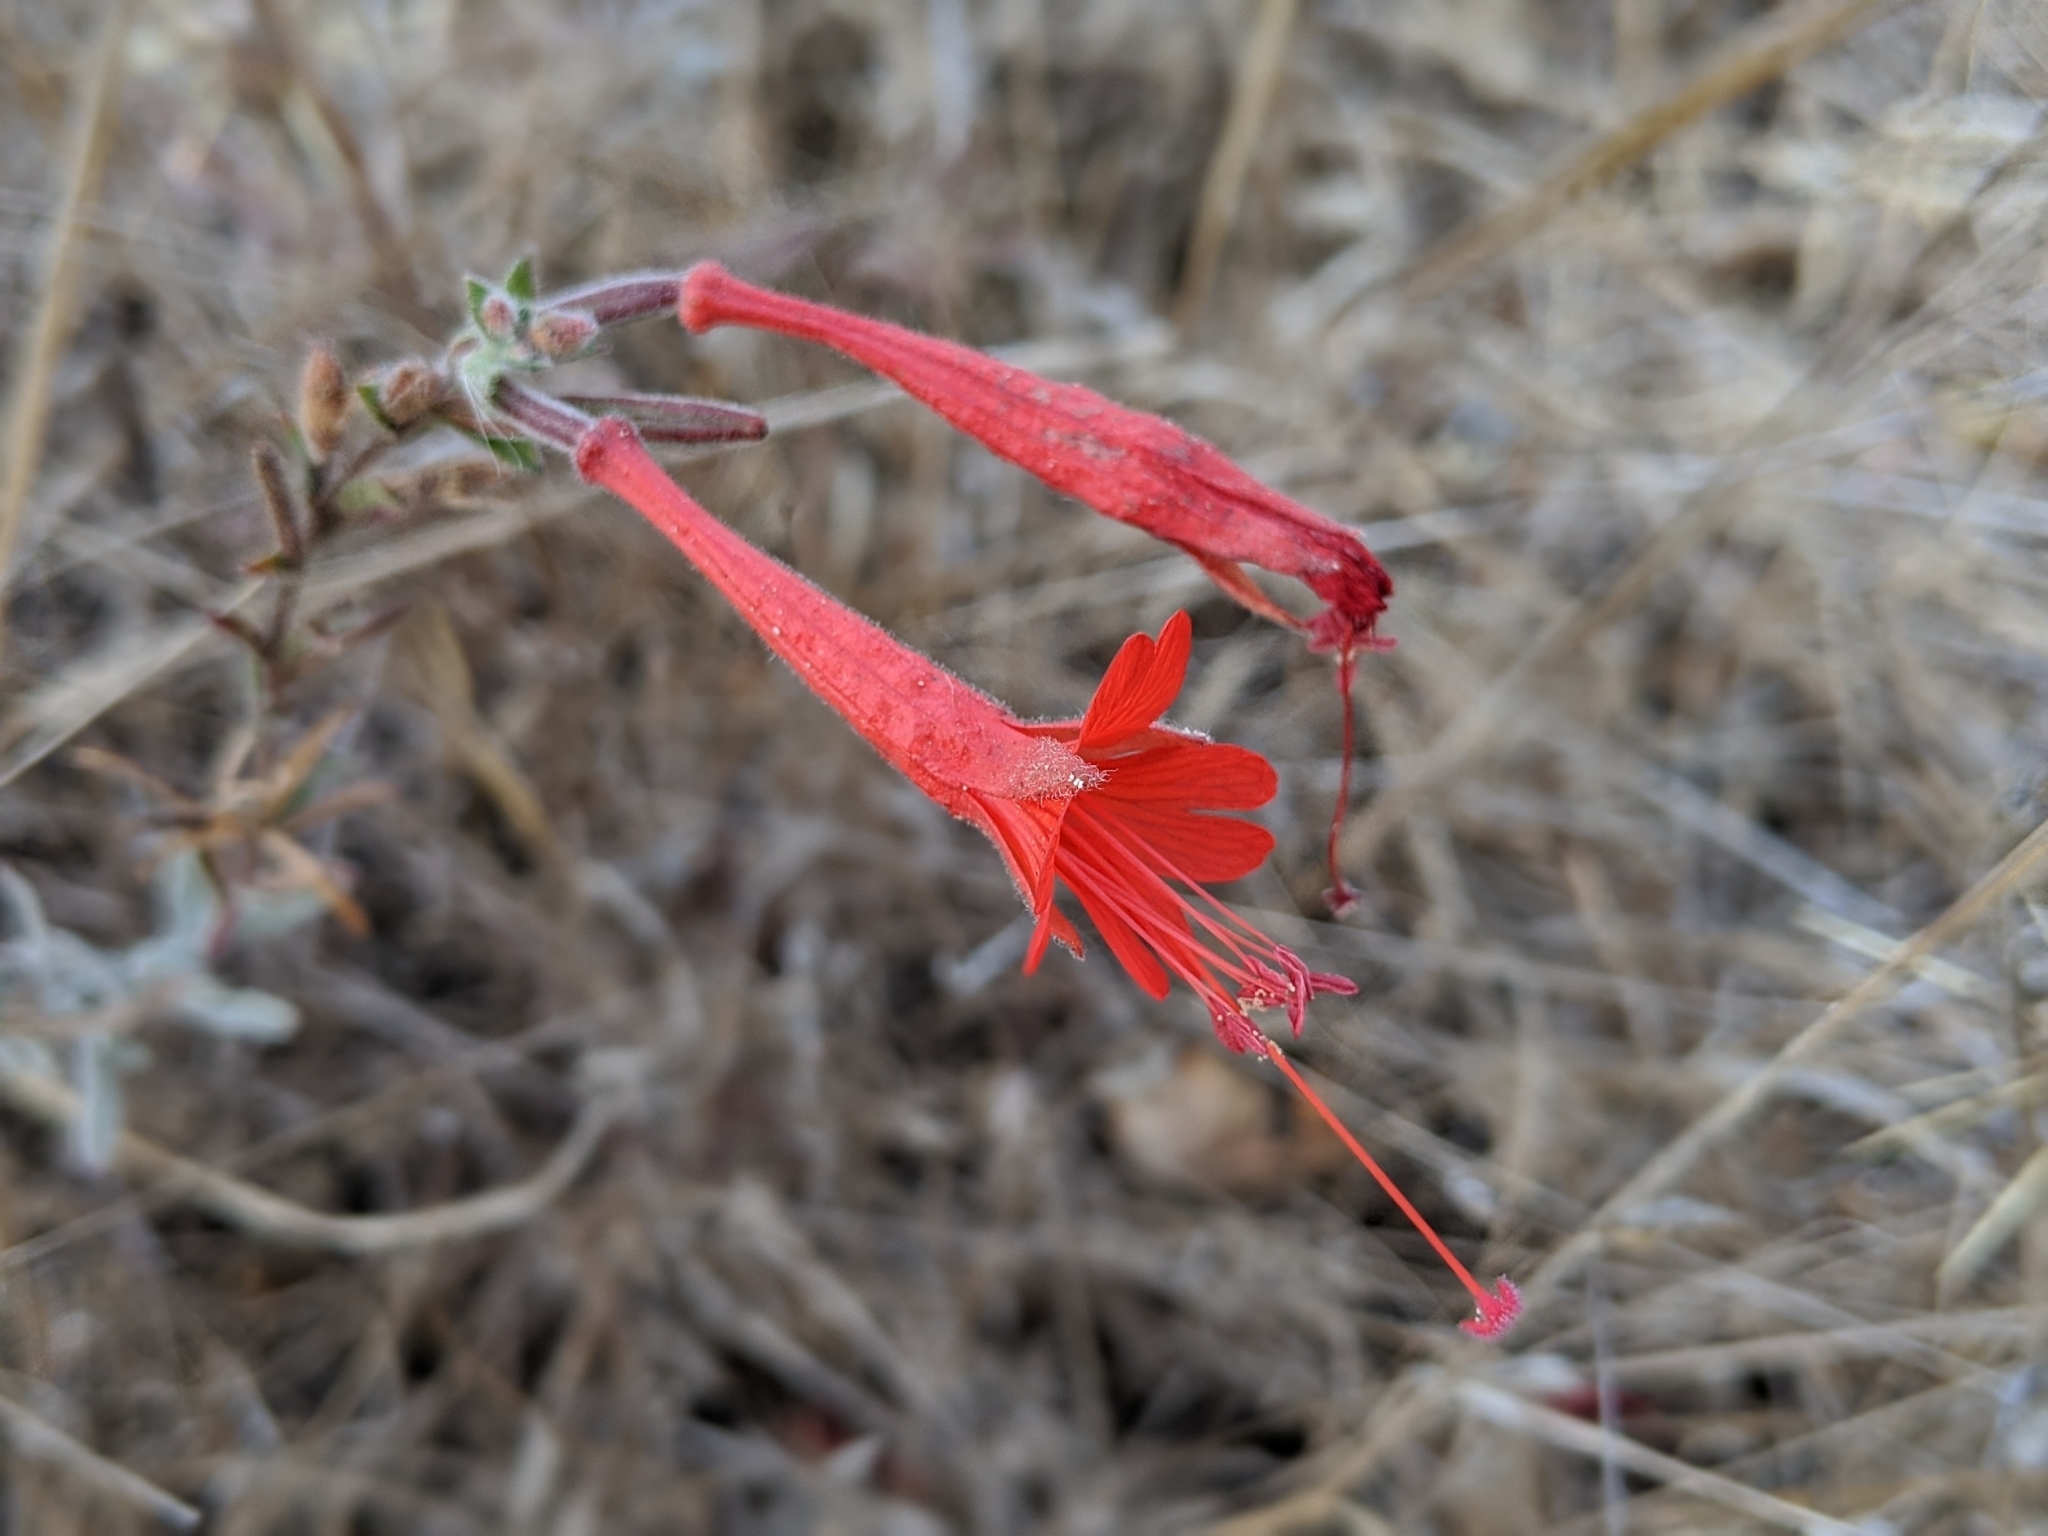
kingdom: Plantae
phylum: Tracheophyta
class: Magnoliopsida
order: Myrtales
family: Onagraceae
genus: Epilobium
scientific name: Epilobium canum
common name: California-fuchsia
